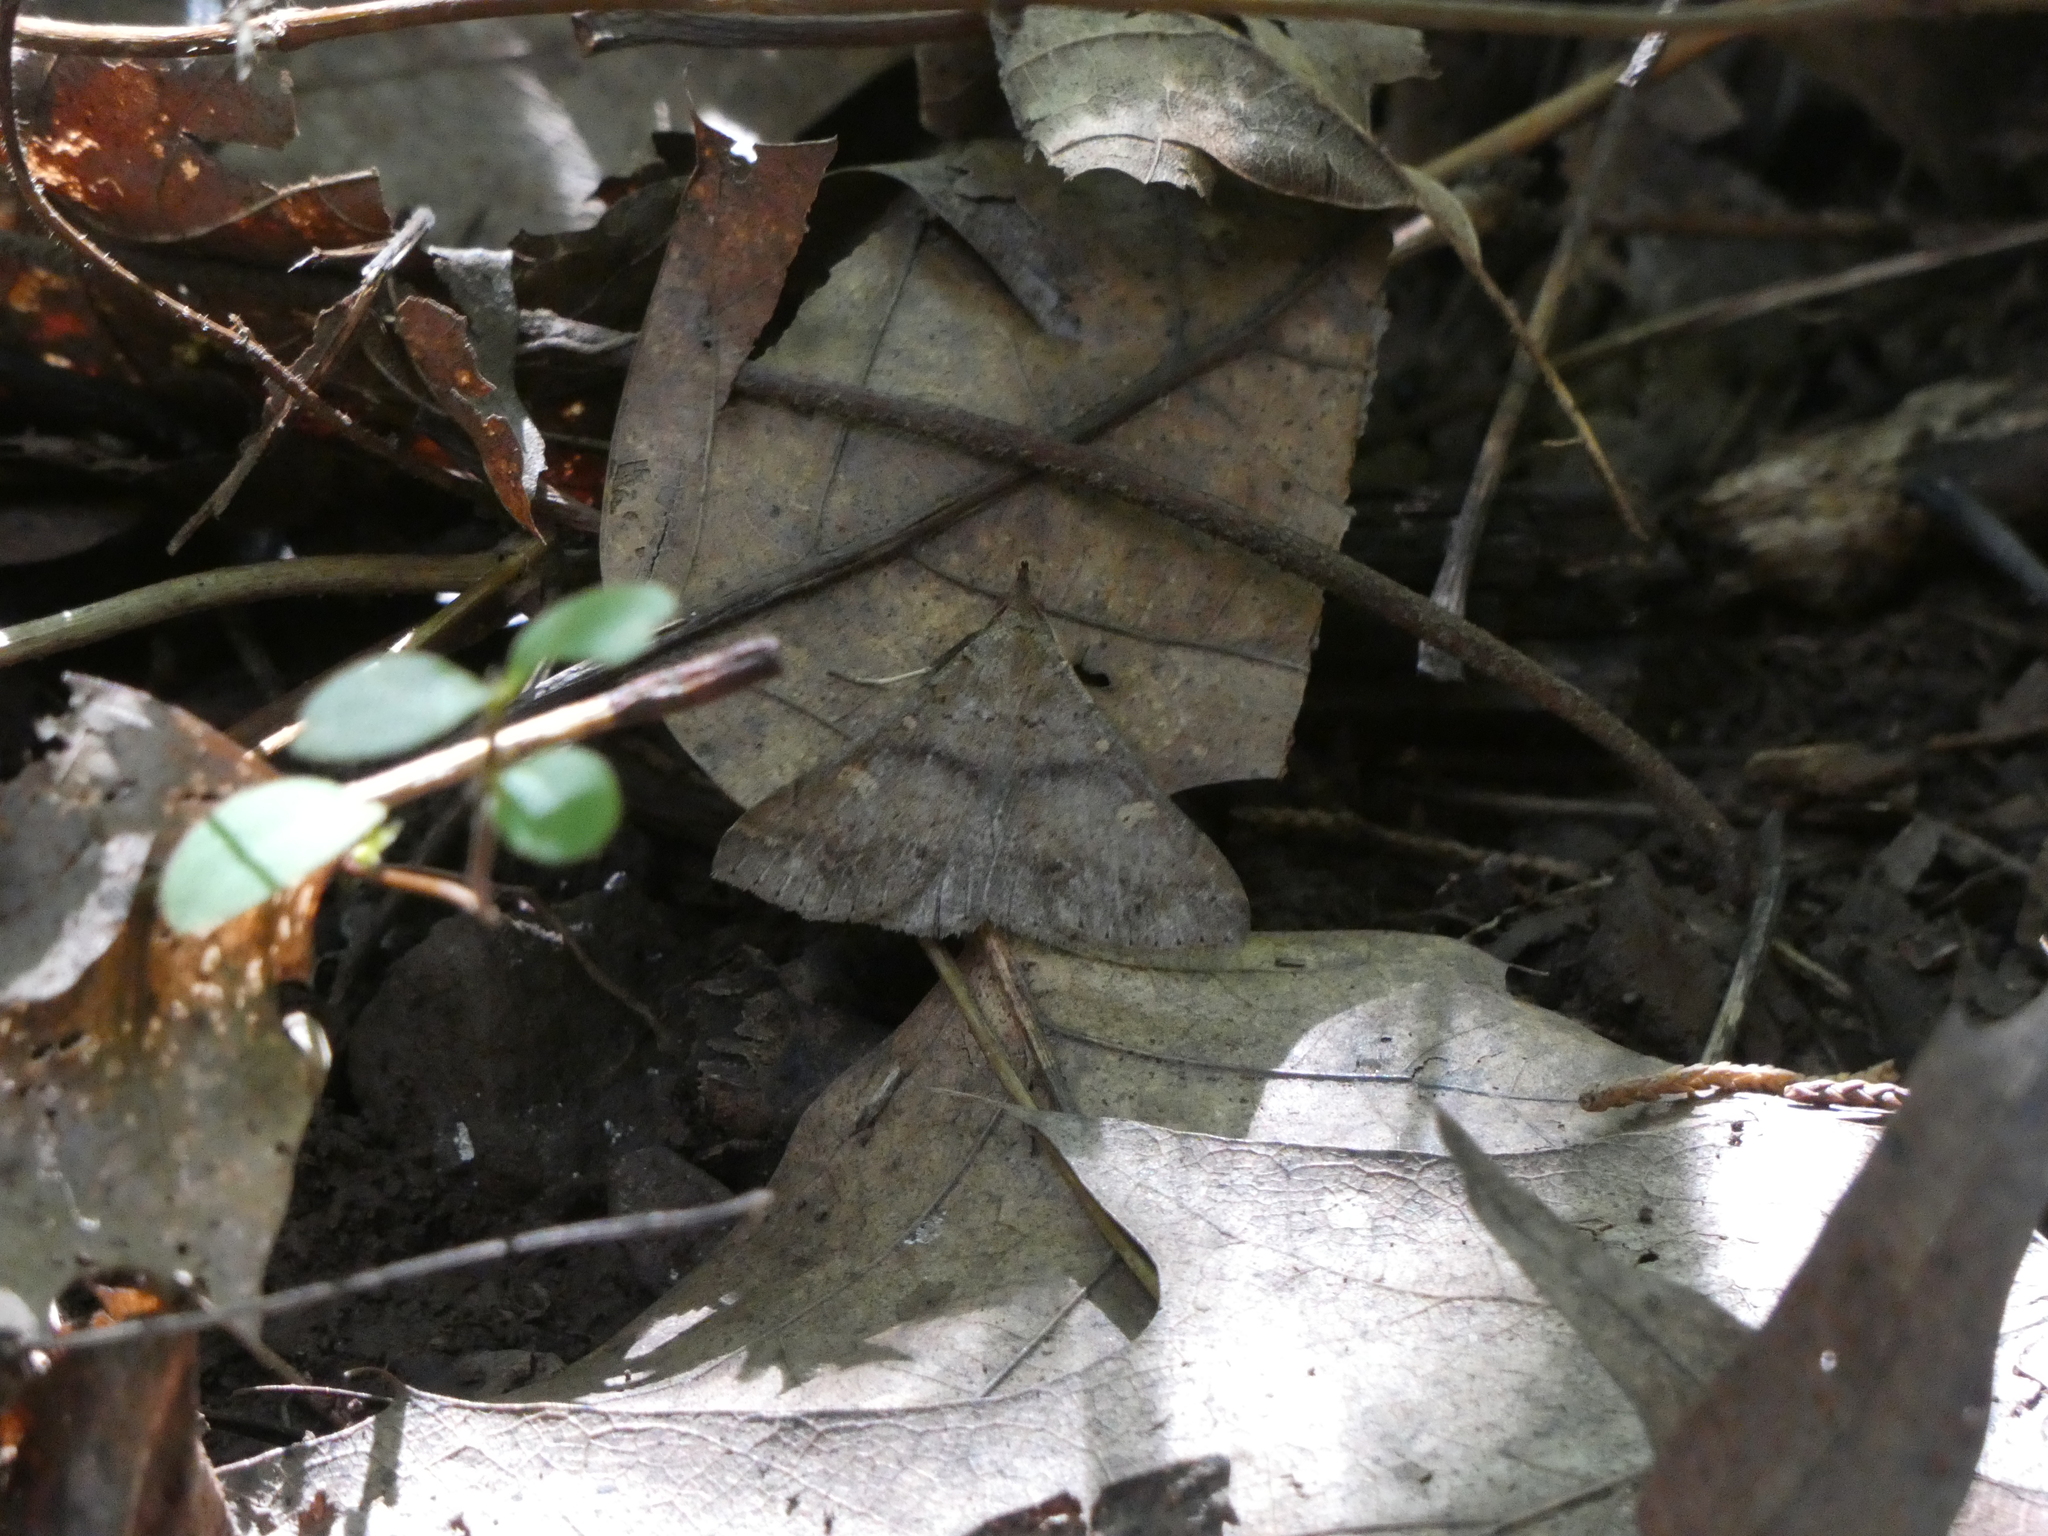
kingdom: Animalia
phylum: Arthropoda
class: Insecta
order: Lepidoptera
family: Erebidae
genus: Renia
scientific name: Renia discoloralis
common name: Discolored renia moth
